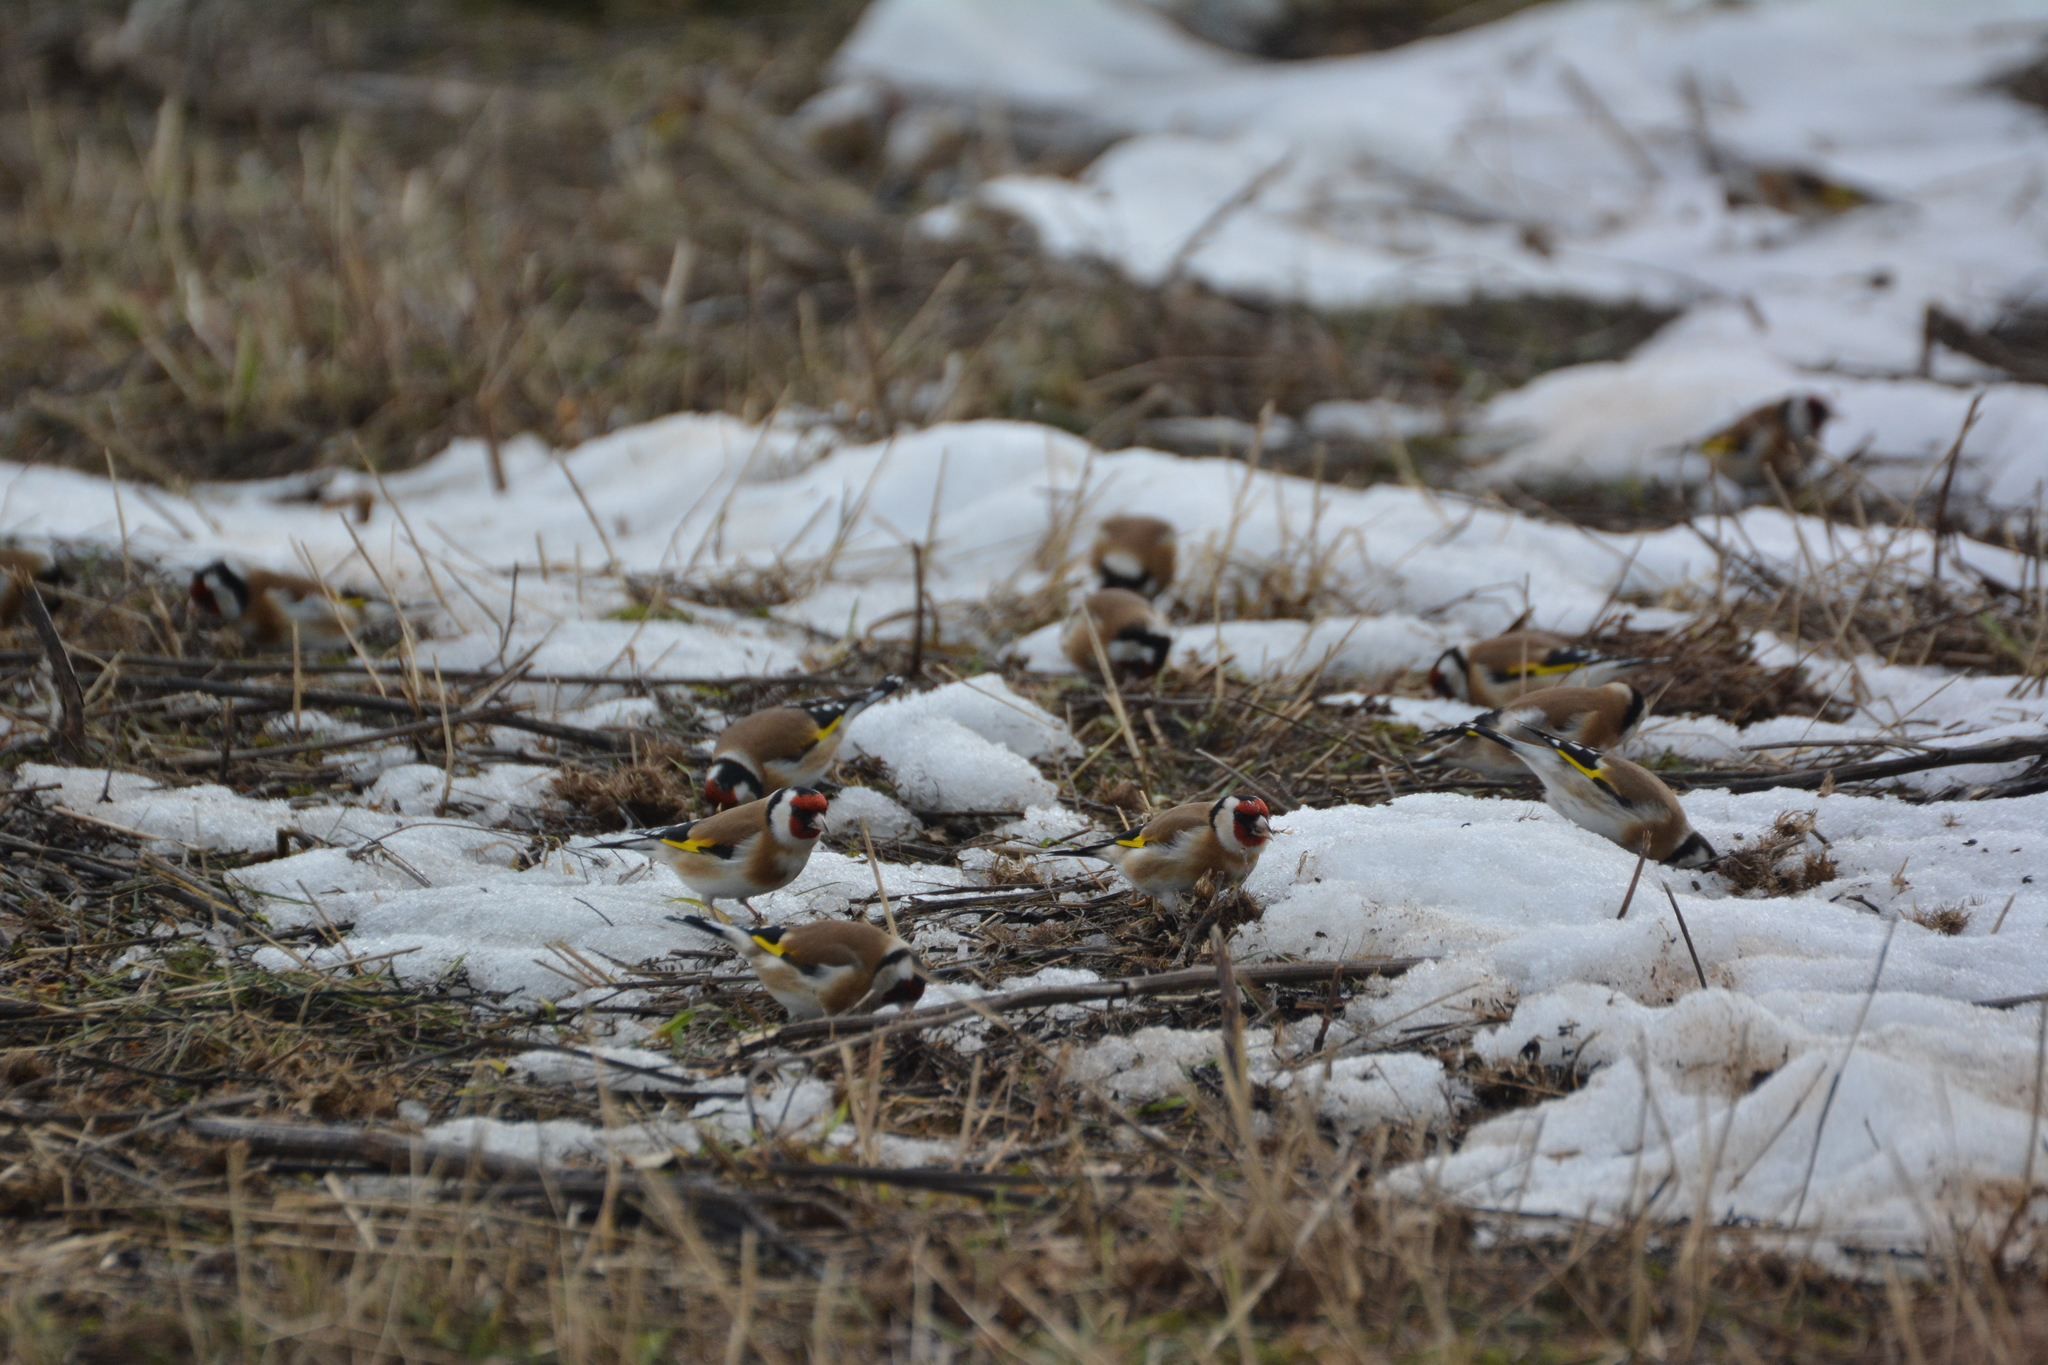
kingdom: Animalia
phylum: Chordata
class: Aves
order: Passeriformes
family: Fringillidae
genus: Carduelis
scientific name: Carduelis carduelis
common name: European goldfinch
